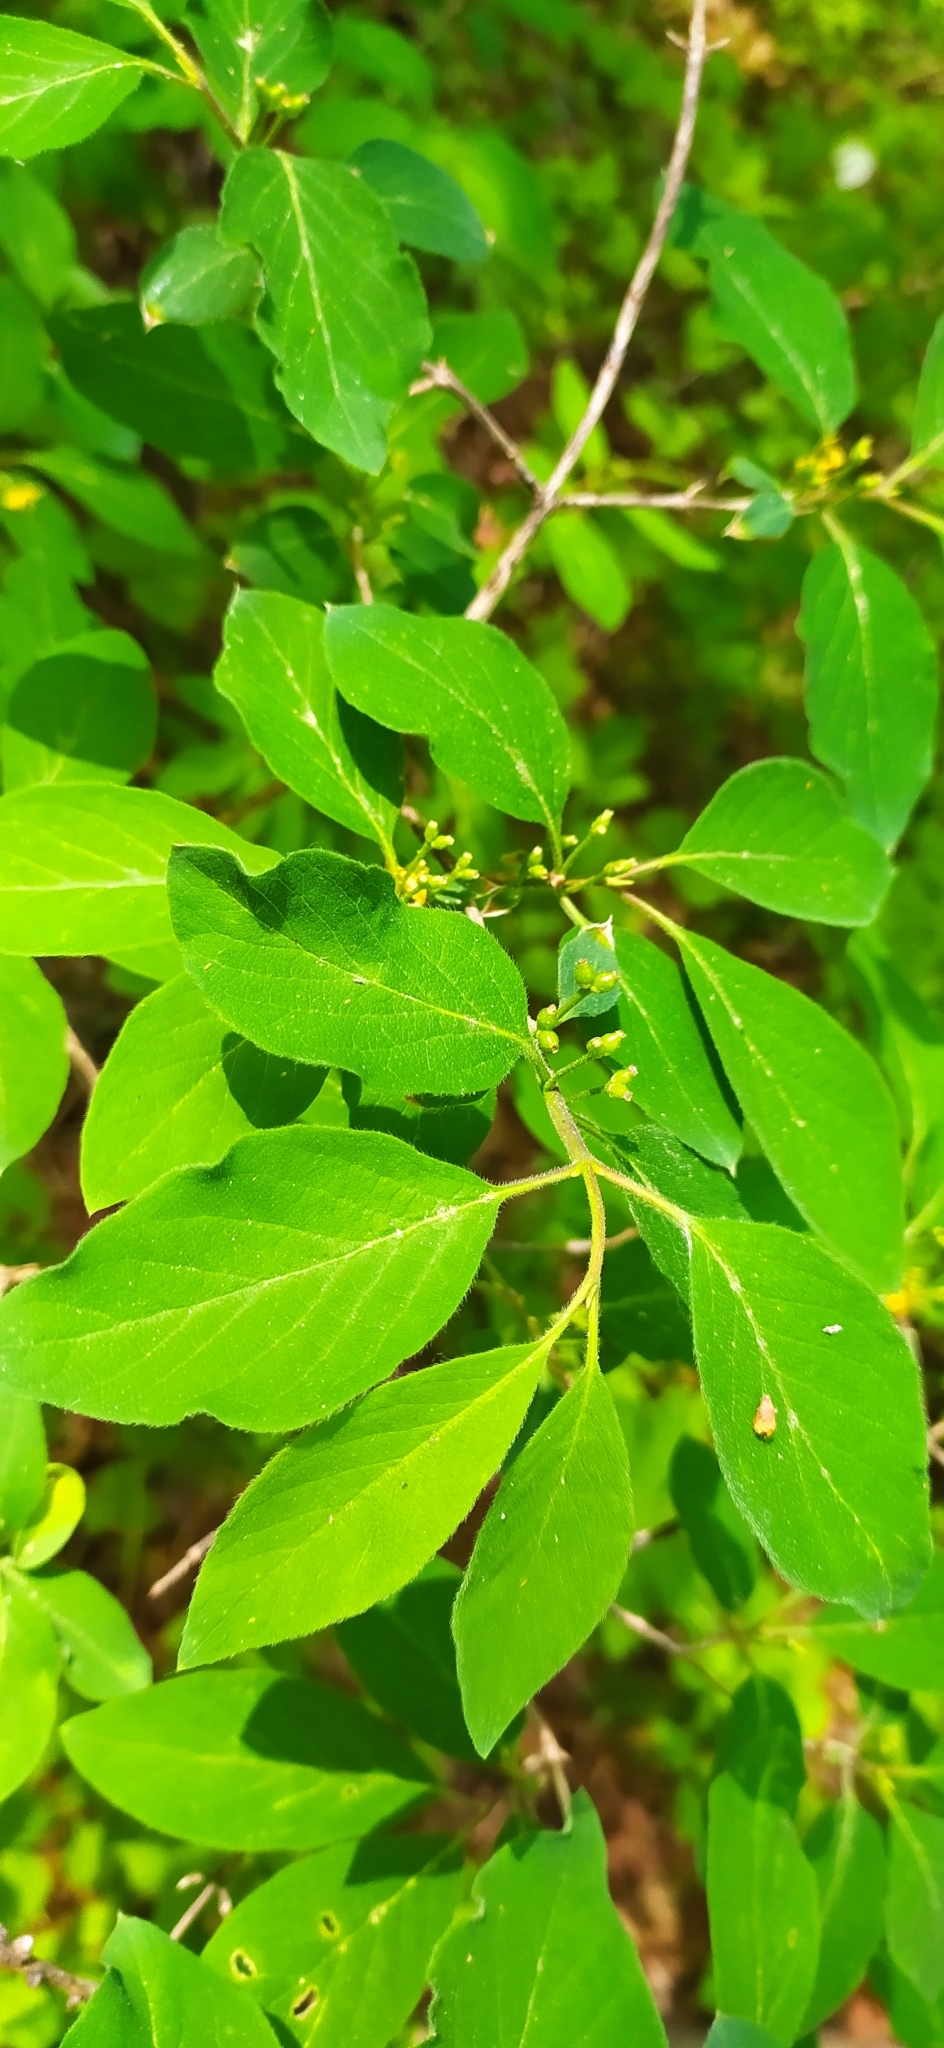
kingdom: Plantae
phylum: Tracheophyta
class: Magnoliopsida
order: Dipsacales
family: Caprifoliaceae
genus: Lonicera
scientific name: Lonicera xylosteum
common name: Fly honeysuckle
